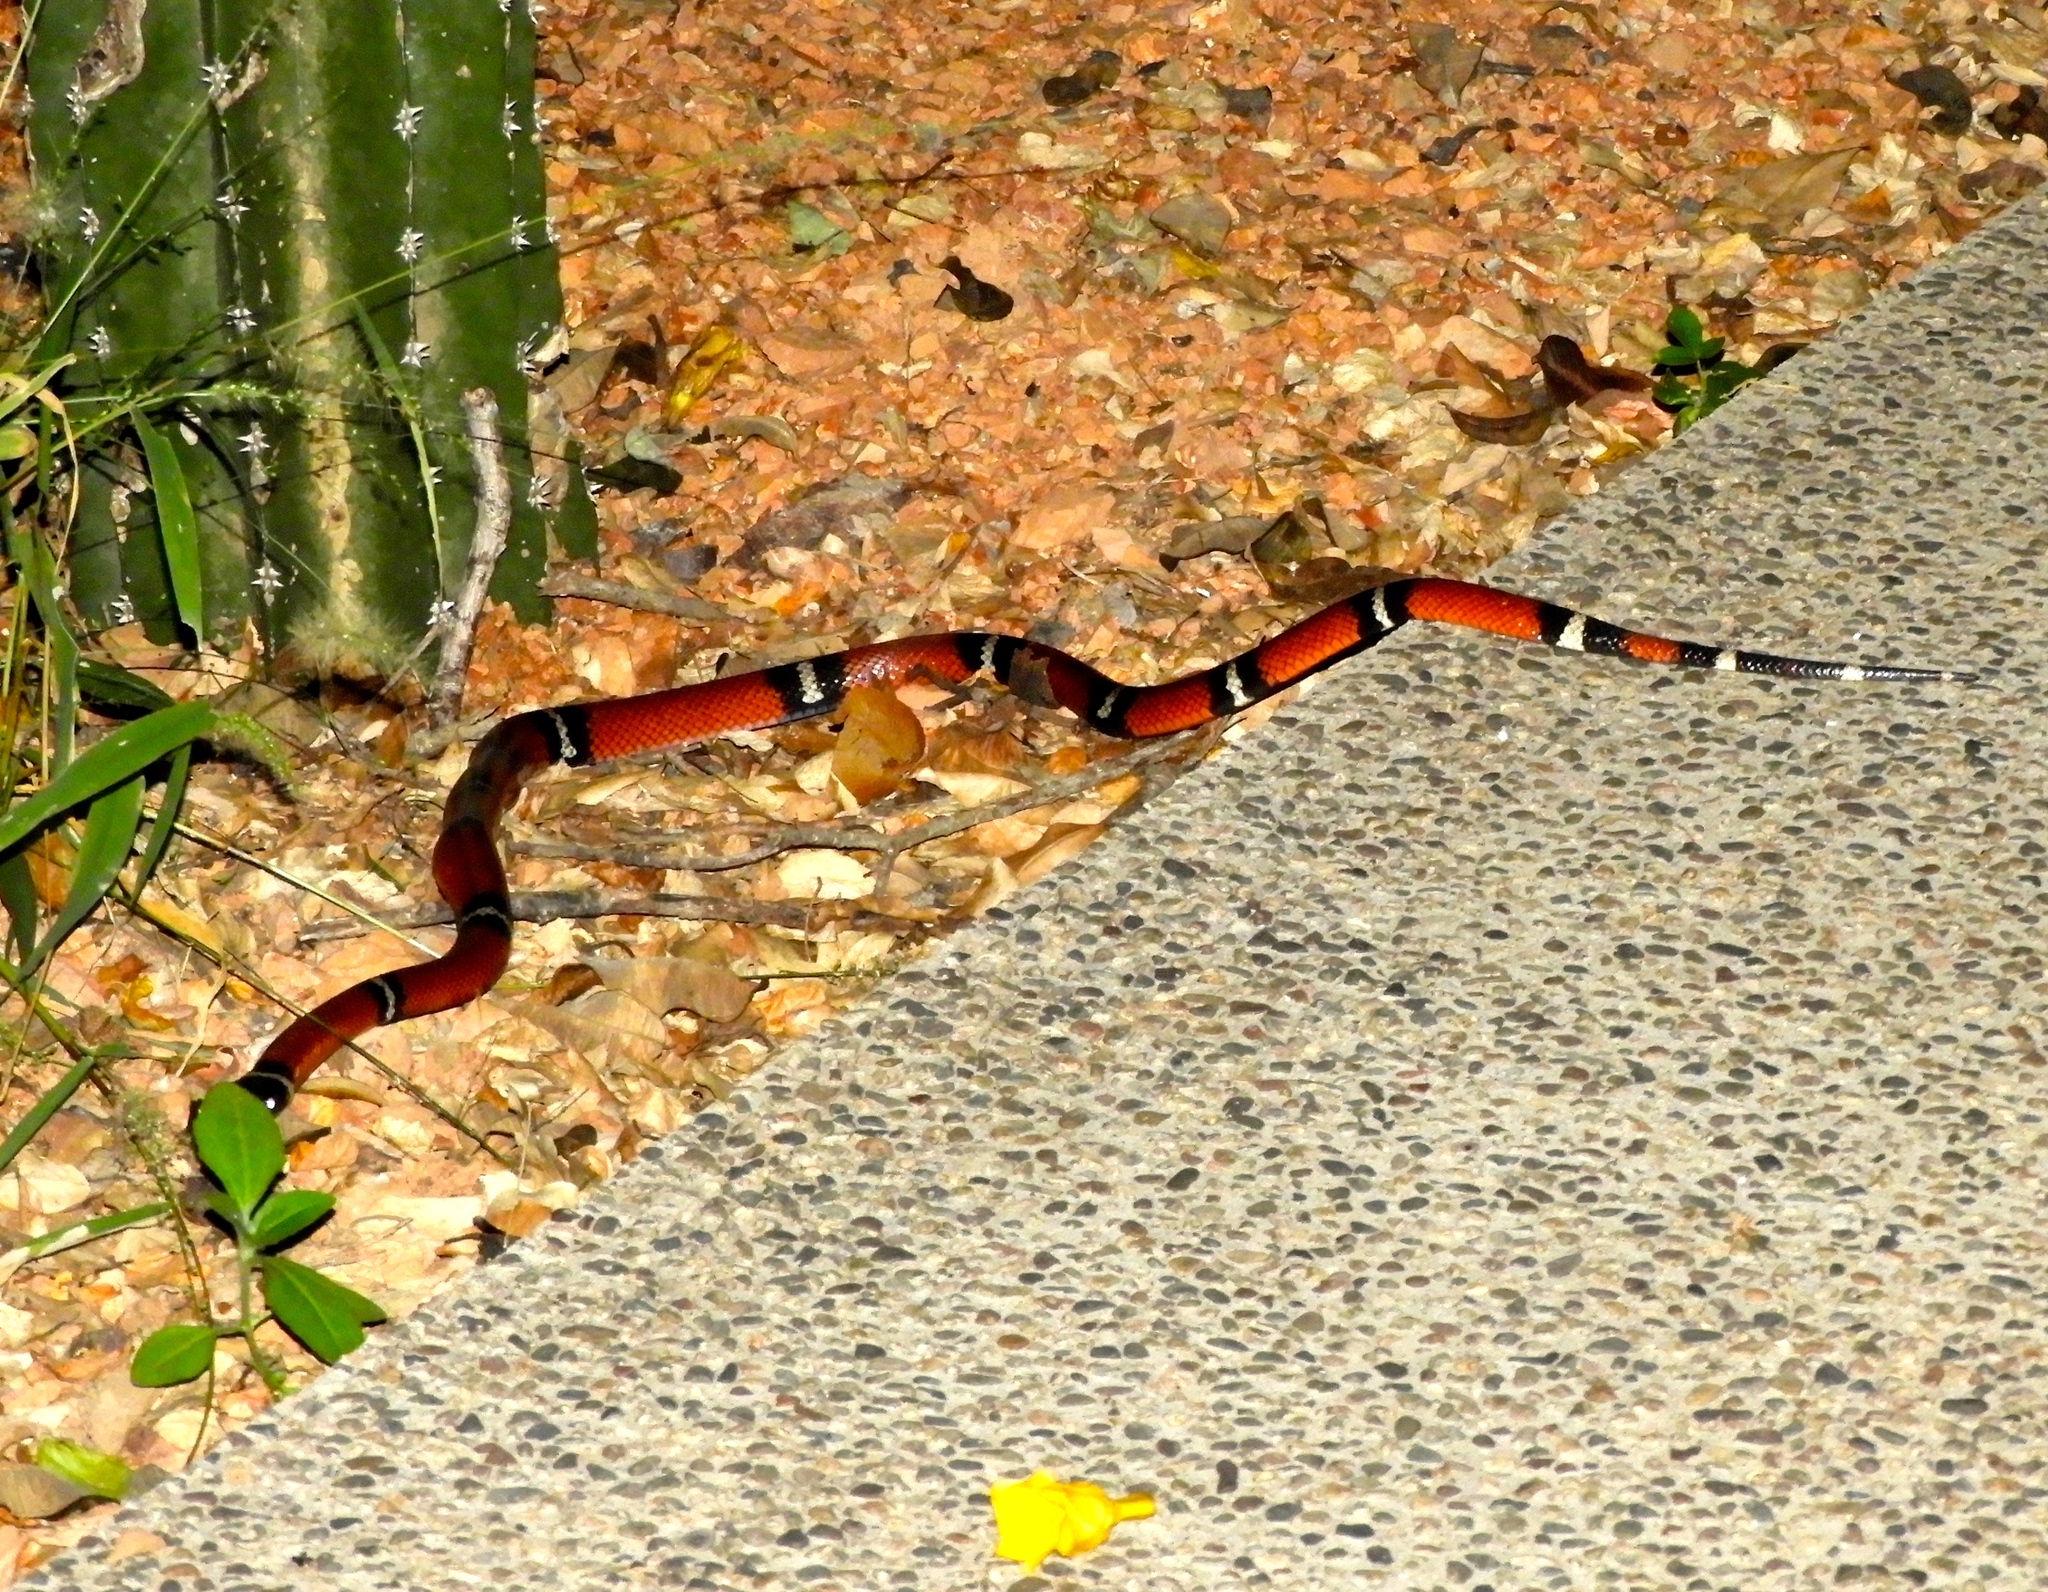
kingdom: Animalia
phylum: Chordata
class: Squamata
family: Colubridae
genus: Lampropeltis
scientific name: Lampropeltis polyzona
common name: Atlantic central american milksnake
